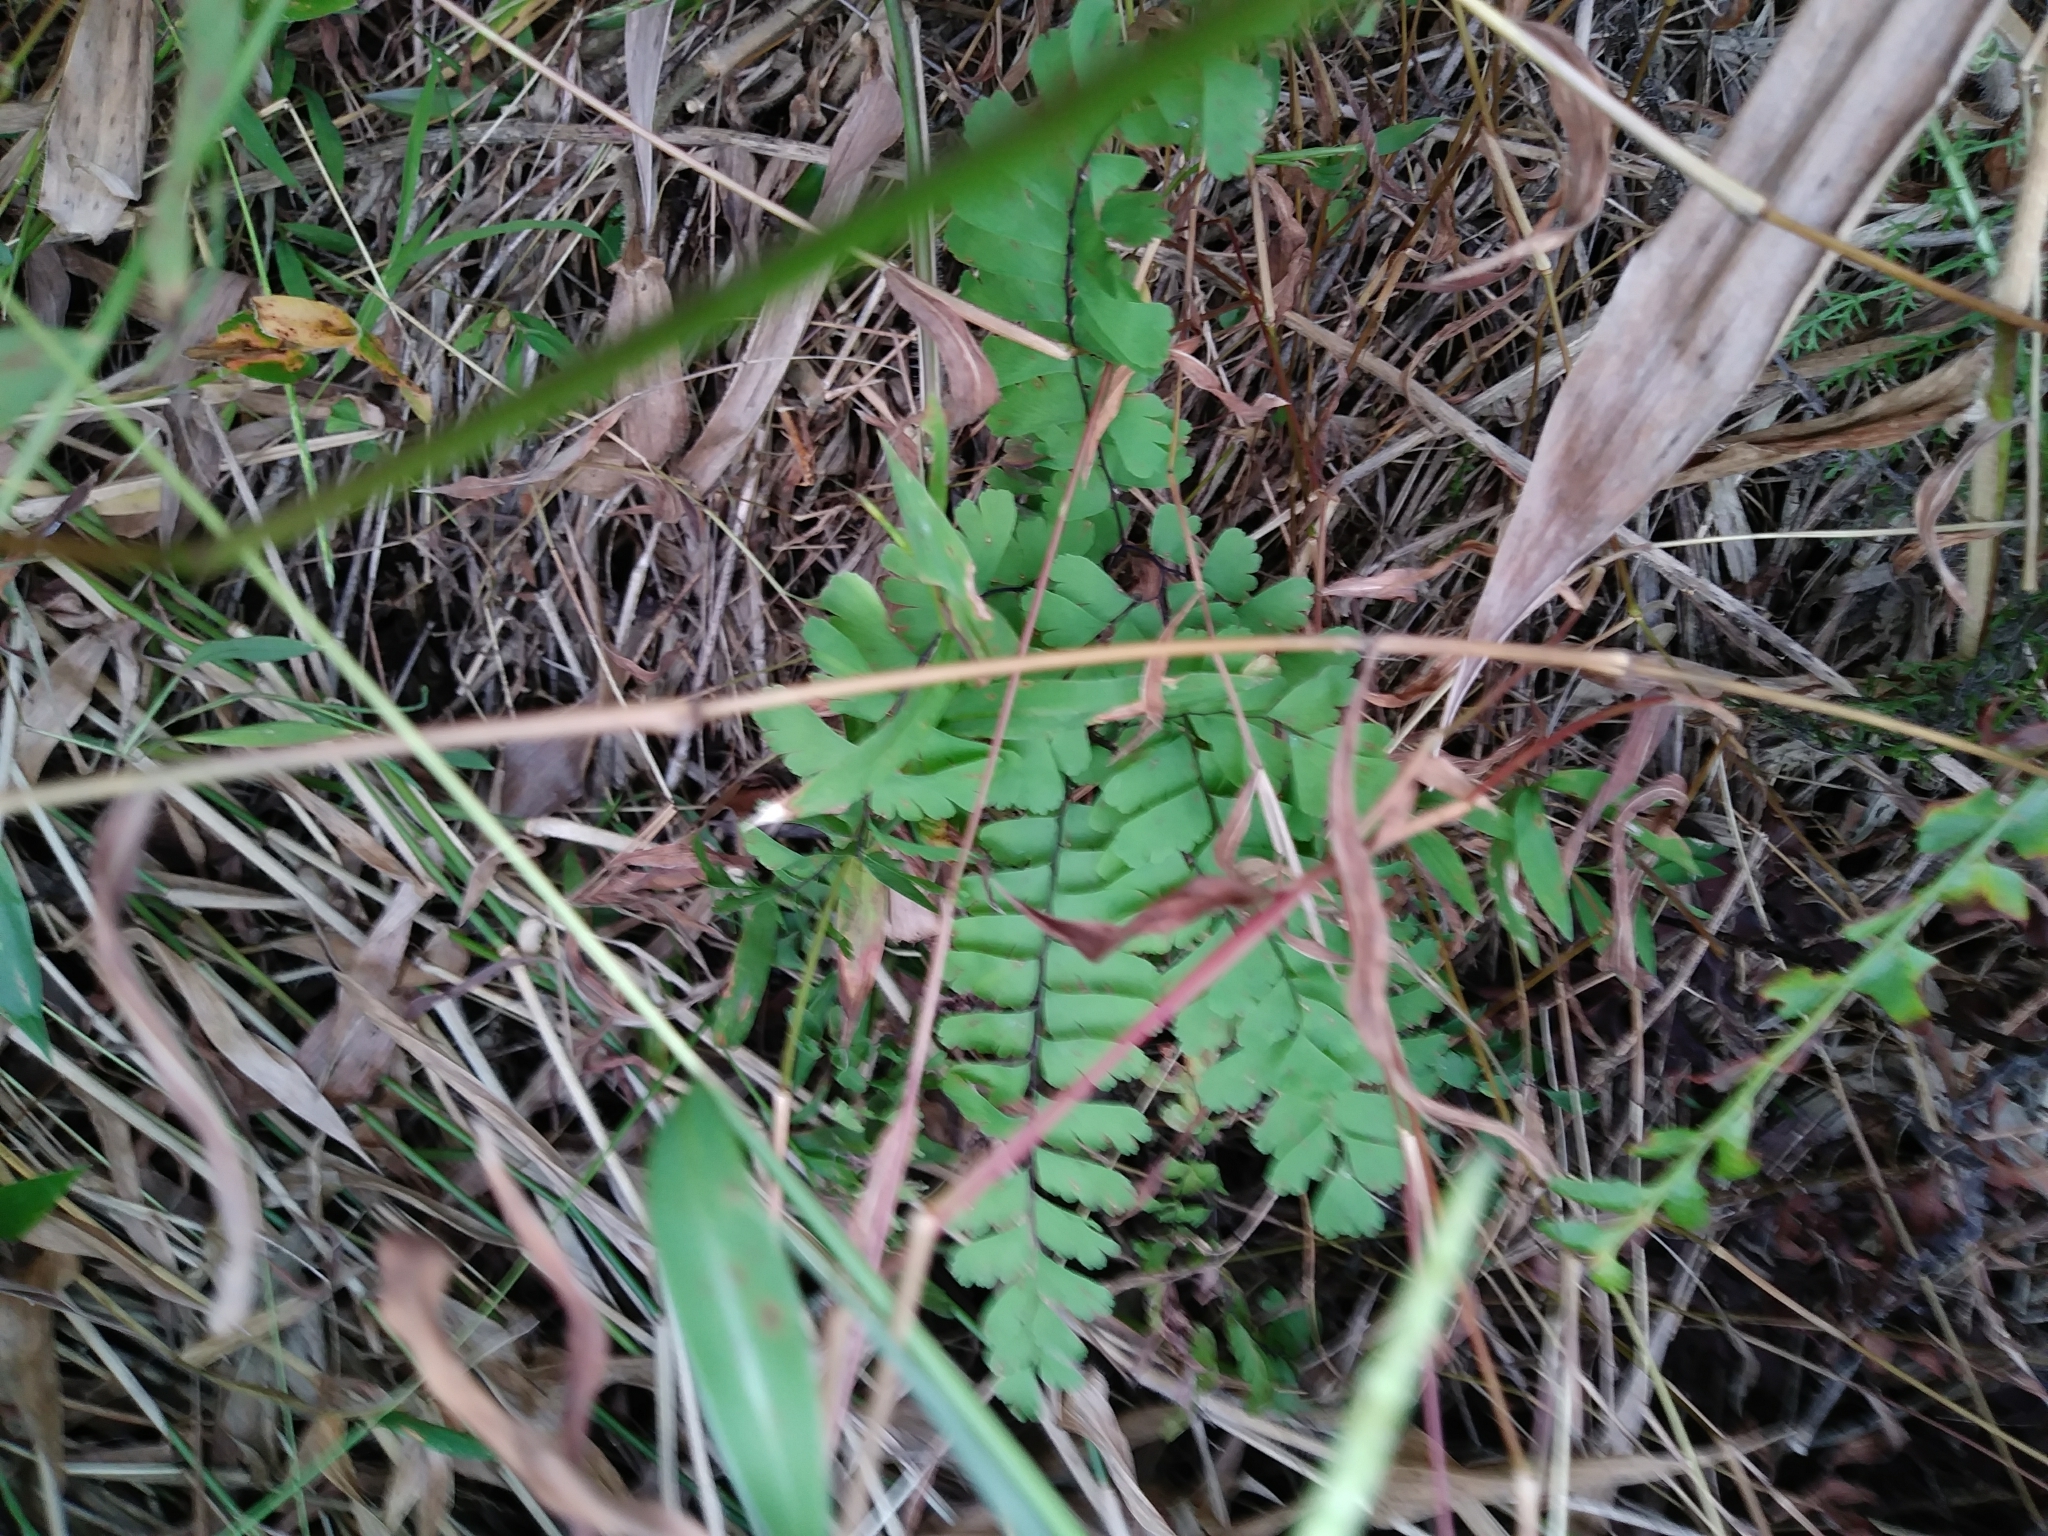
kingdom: Plantae
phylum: Tracheophyta
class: Polypodiopsida
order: Polypodiales
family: Pteridaceae
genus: Adiantum
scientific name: Adiantum pedatum
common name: Five-finger fern
